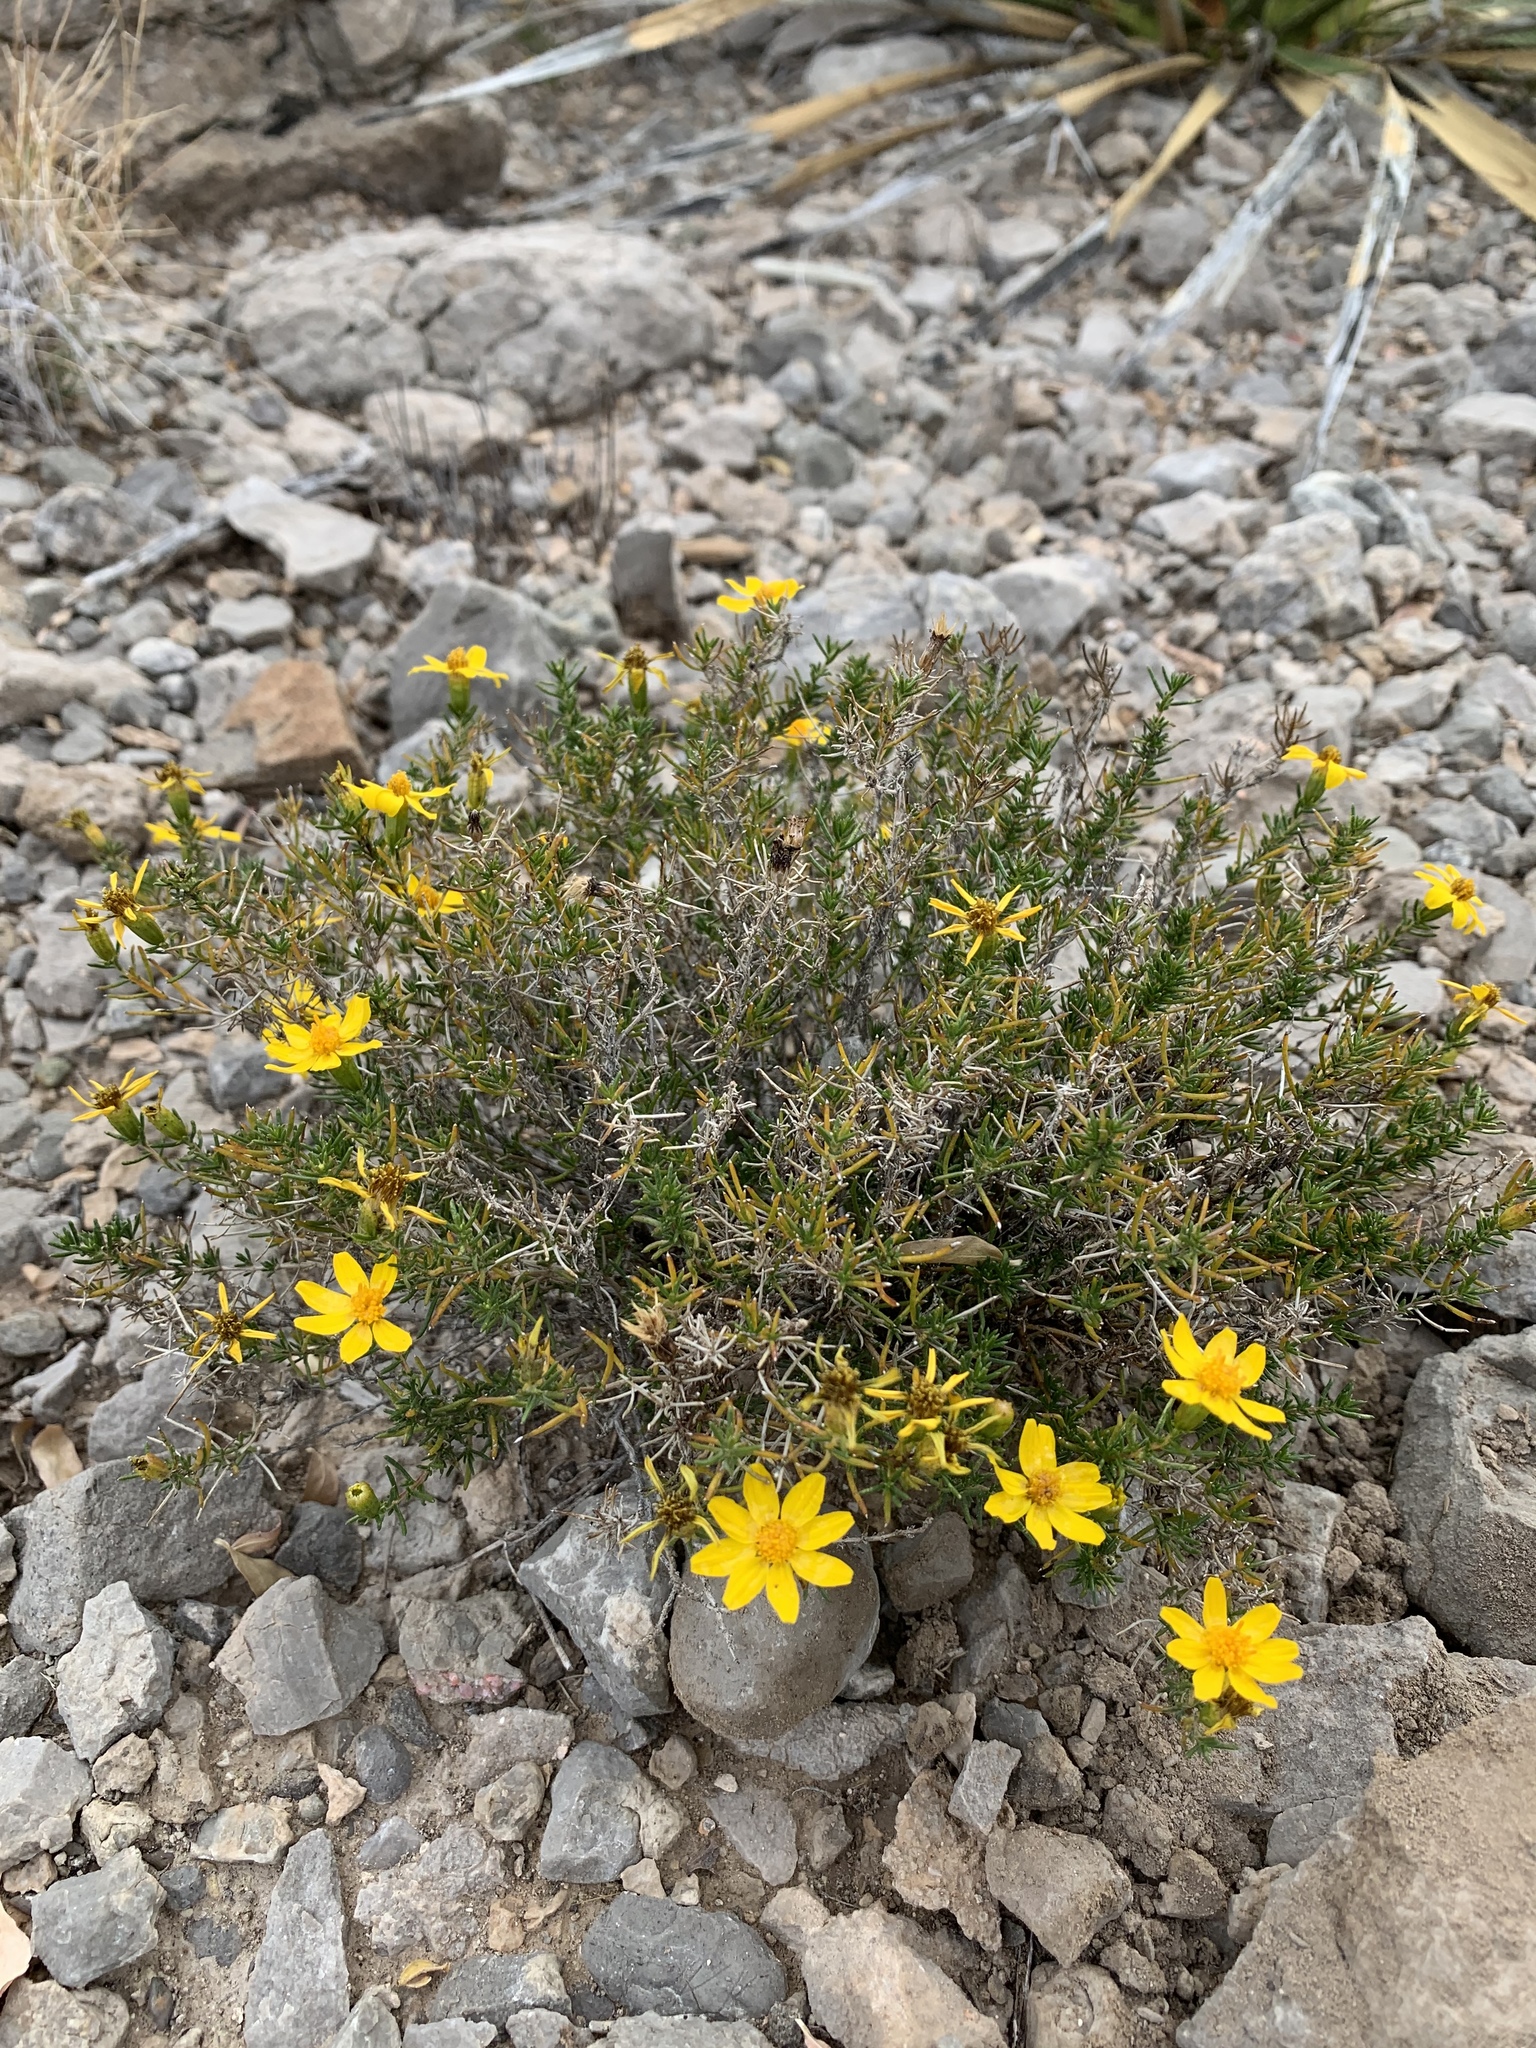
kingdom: Plantae
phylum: Tracheophyta
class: Magnoliopsida
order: Asterales
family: Asteraceae
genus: Thymophylla
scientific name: Thymophylla acerosa
